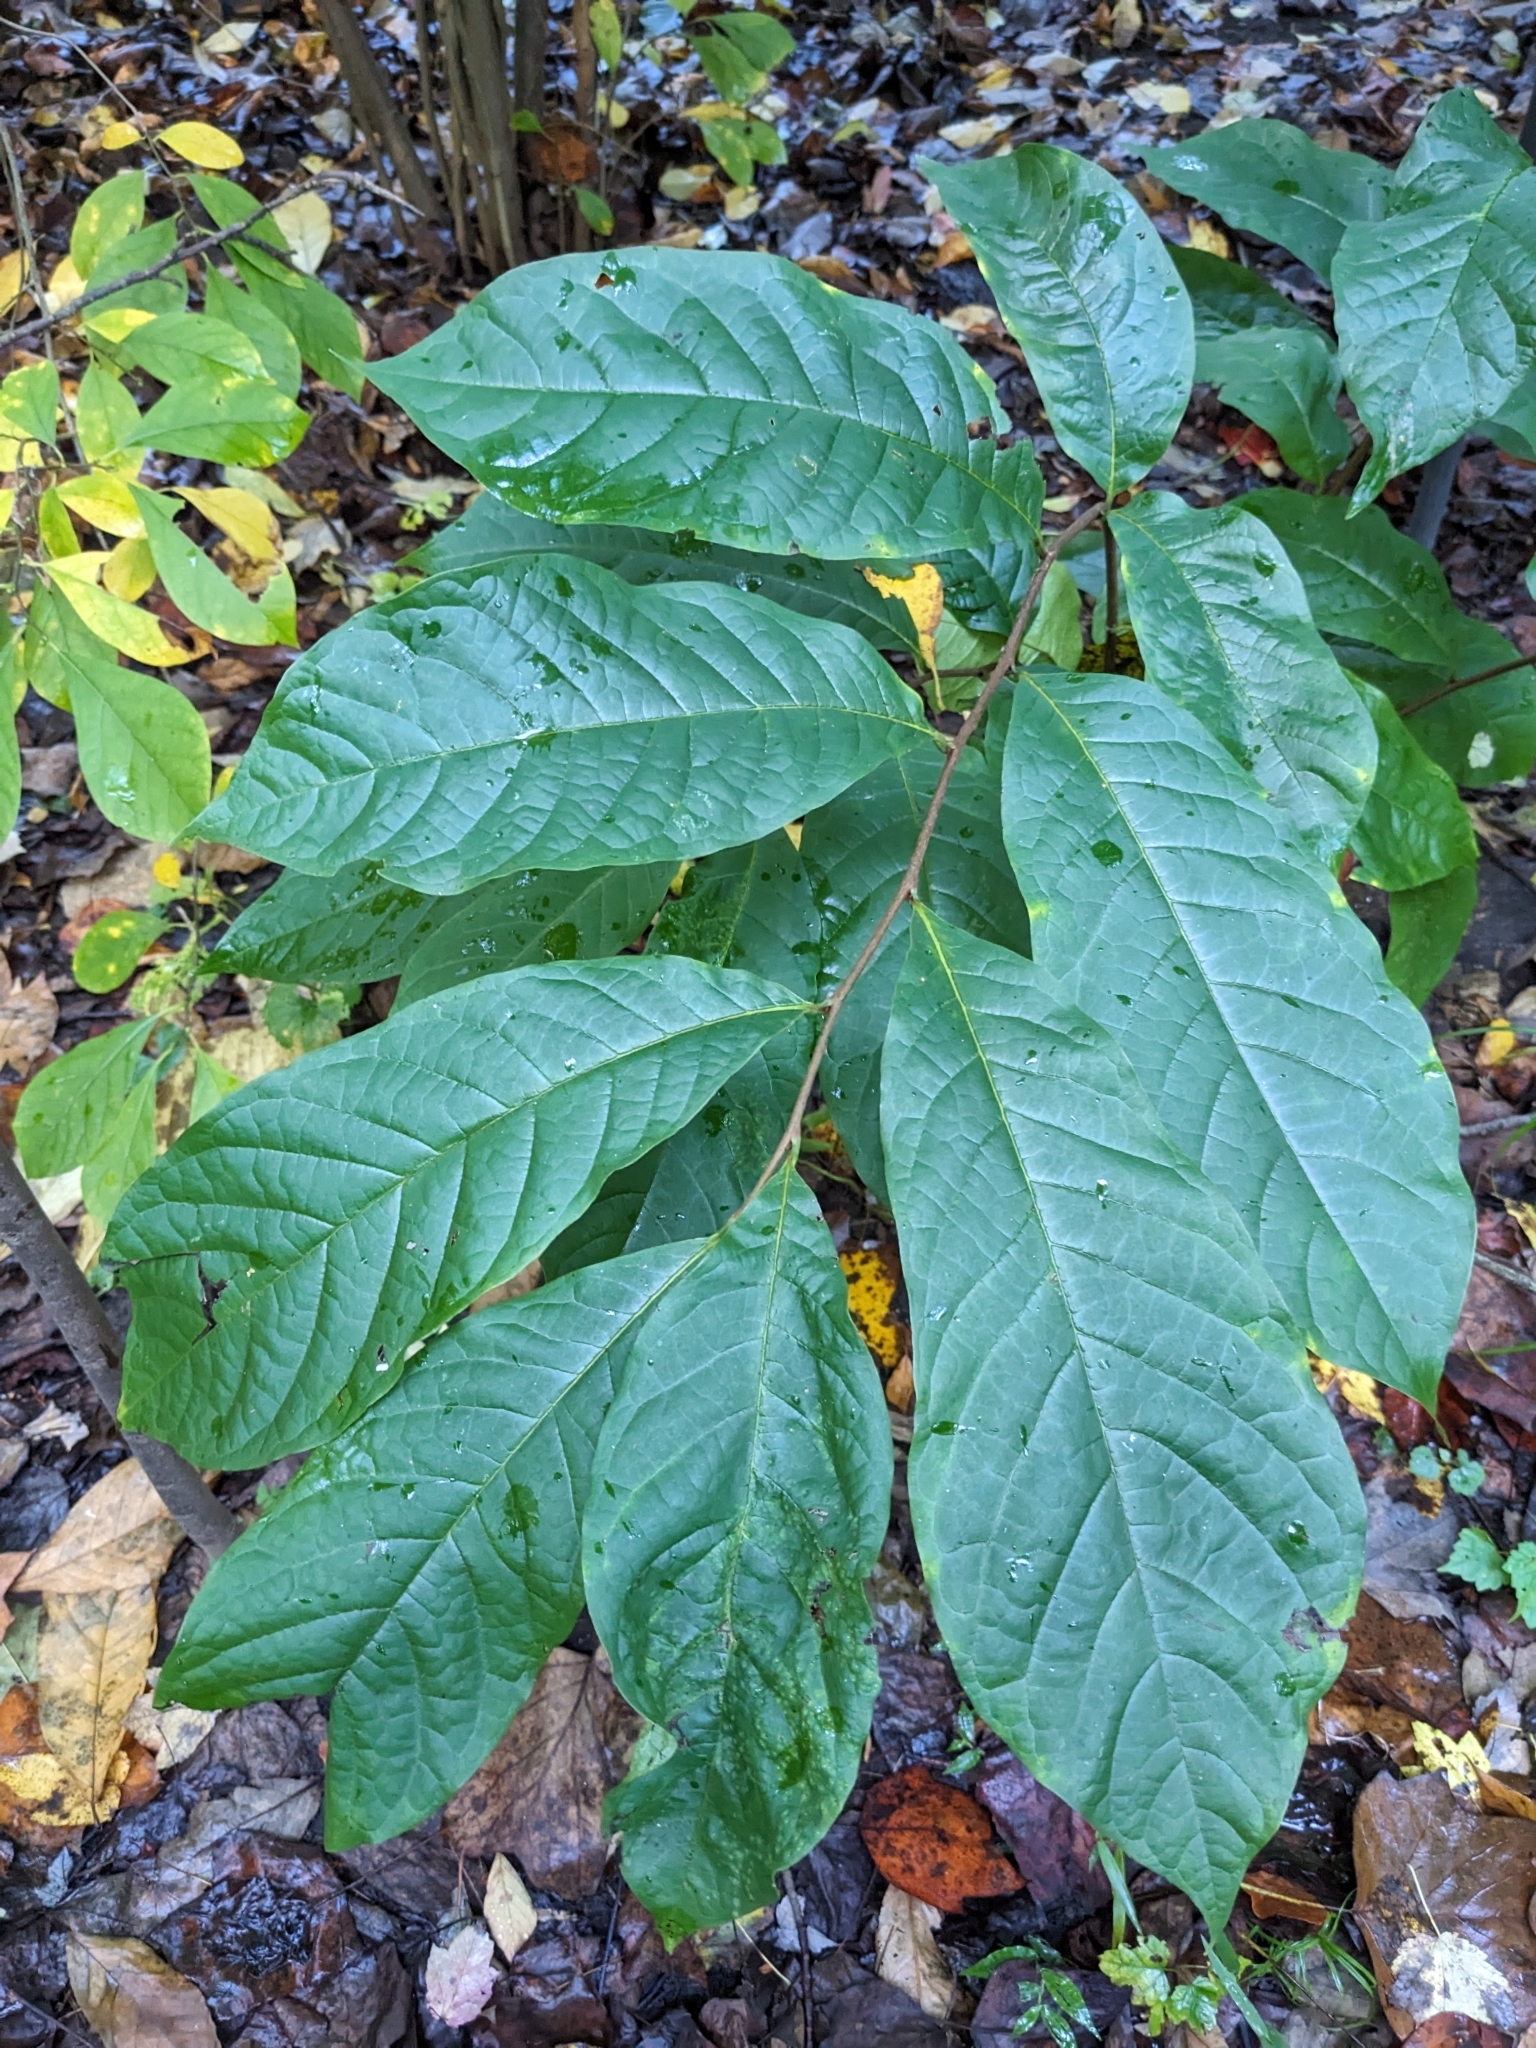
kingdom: Plantae
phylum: Tracheophyta
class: Magnoliopsida
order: Magnoliales
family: Annonaceae
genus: Asimina
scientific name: Asimina triloba
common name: Dog-banana
